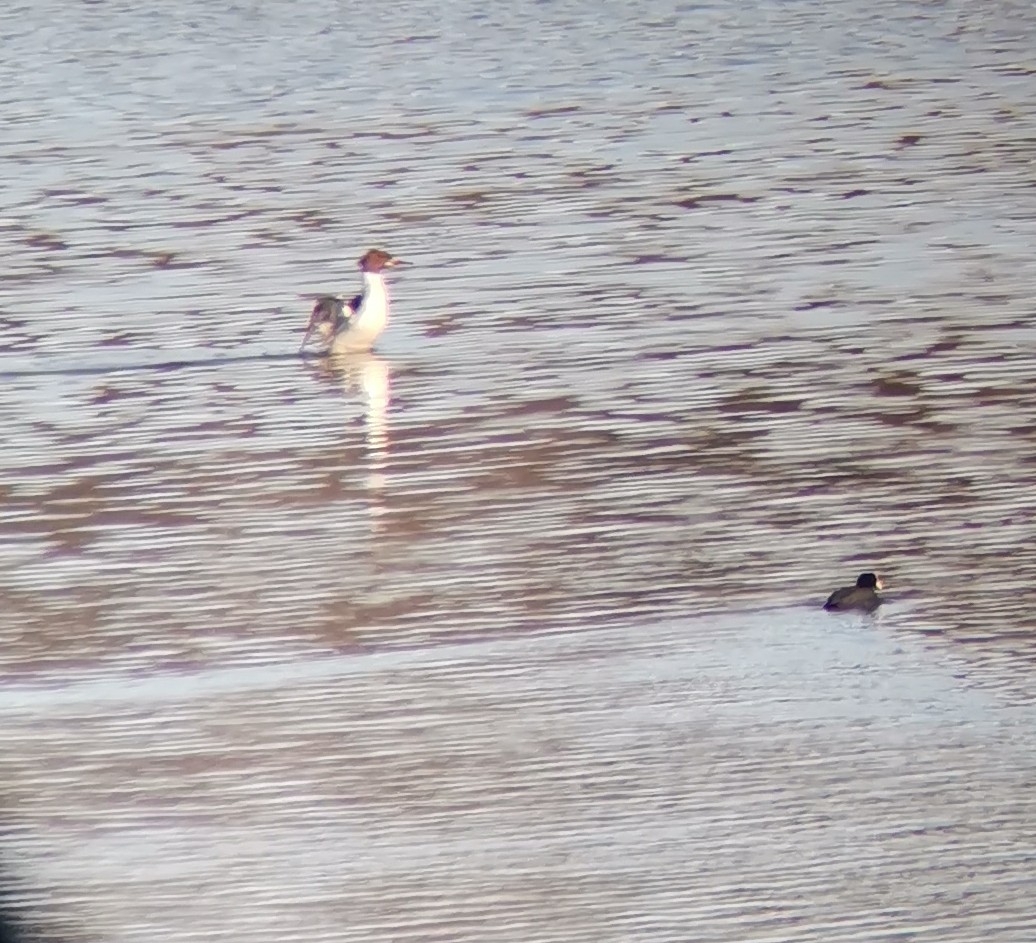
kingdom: Animalia
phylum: Chordata
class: Aves
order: Anseriformes
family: Anatidae
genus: Mergus
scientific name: Mergus merganser
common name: Common merganser
